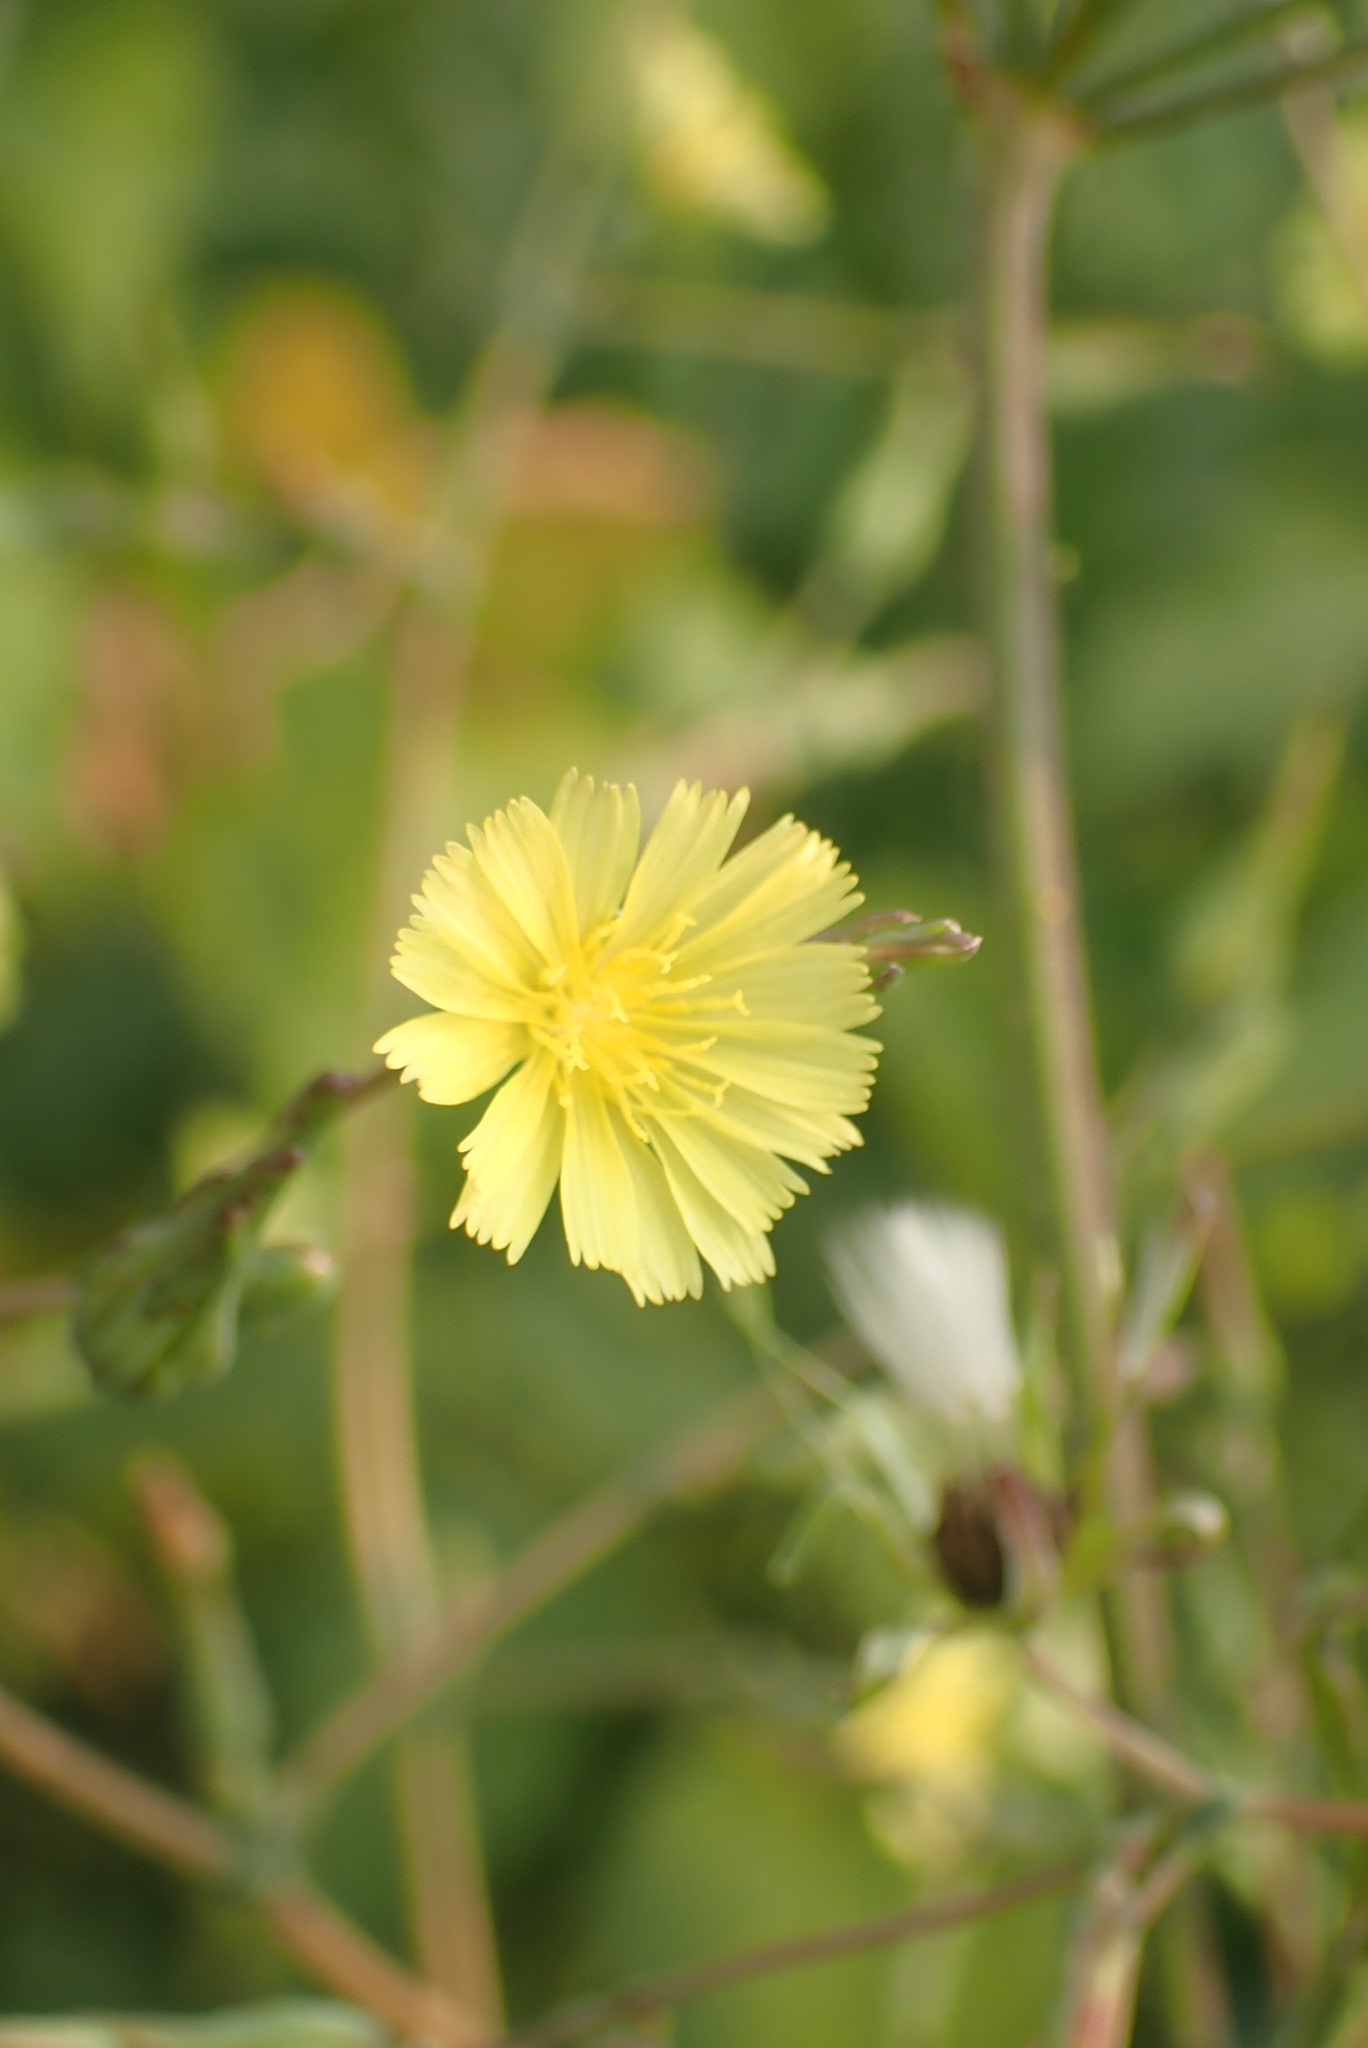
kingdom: Plantae
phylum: Tracheophyta
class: Magnoliopsida
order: Asterales
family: Asteraceae
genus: Lactuca
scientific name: Lactuca serriola
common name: Prickly lettuce
